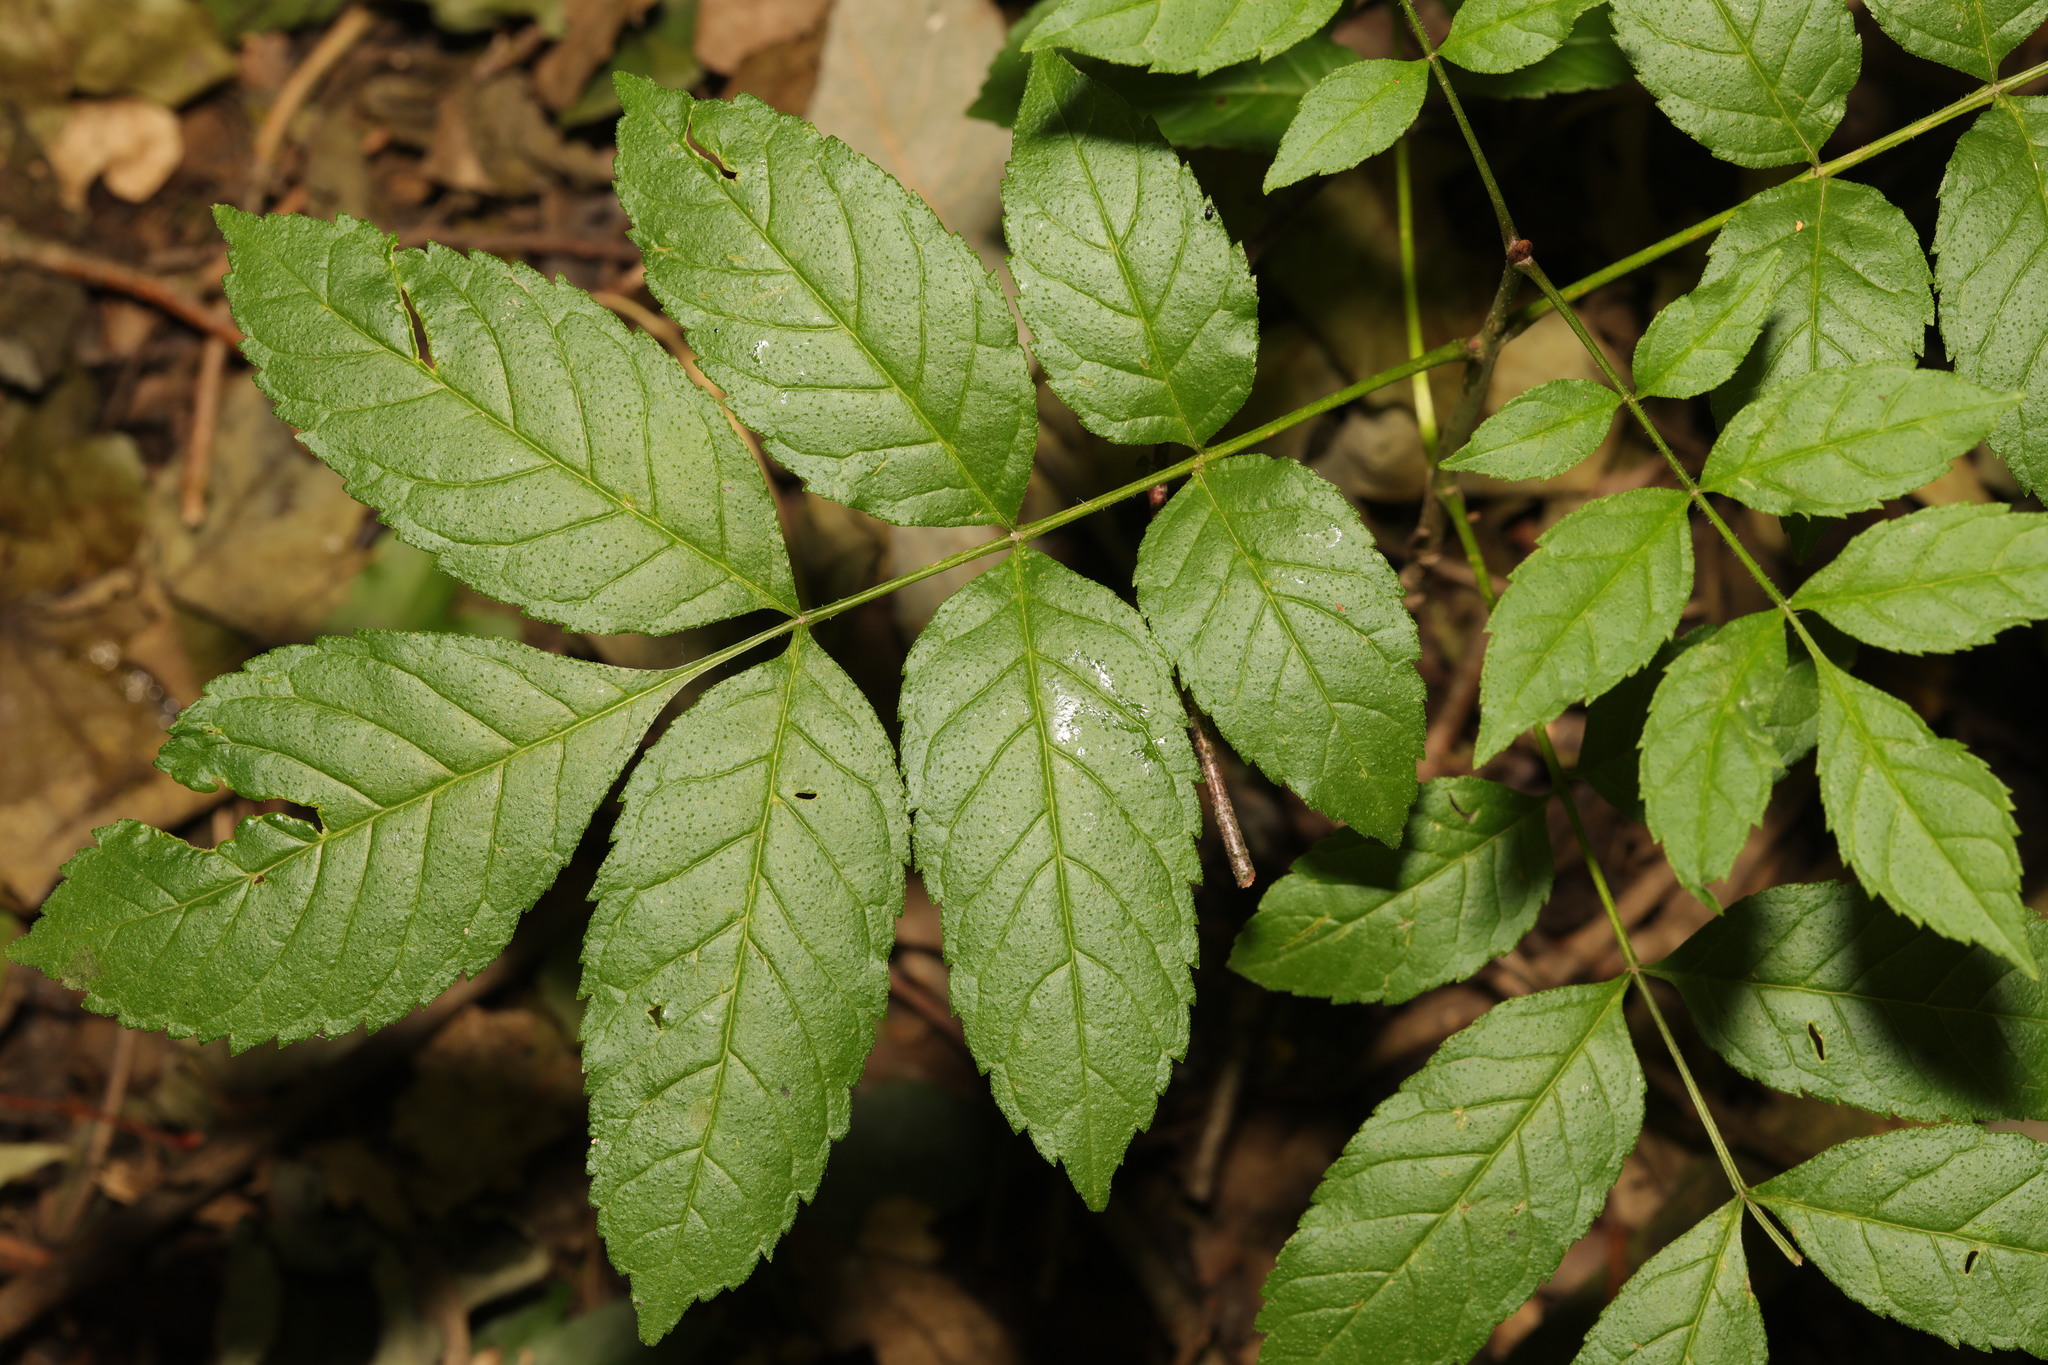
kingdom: Plantae
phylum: Tracheophyta
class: Magnoliopsida
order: Lamiales
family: Oleaceae
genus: Fraxinus
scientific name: Fraxinus excelsior
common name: European ash
